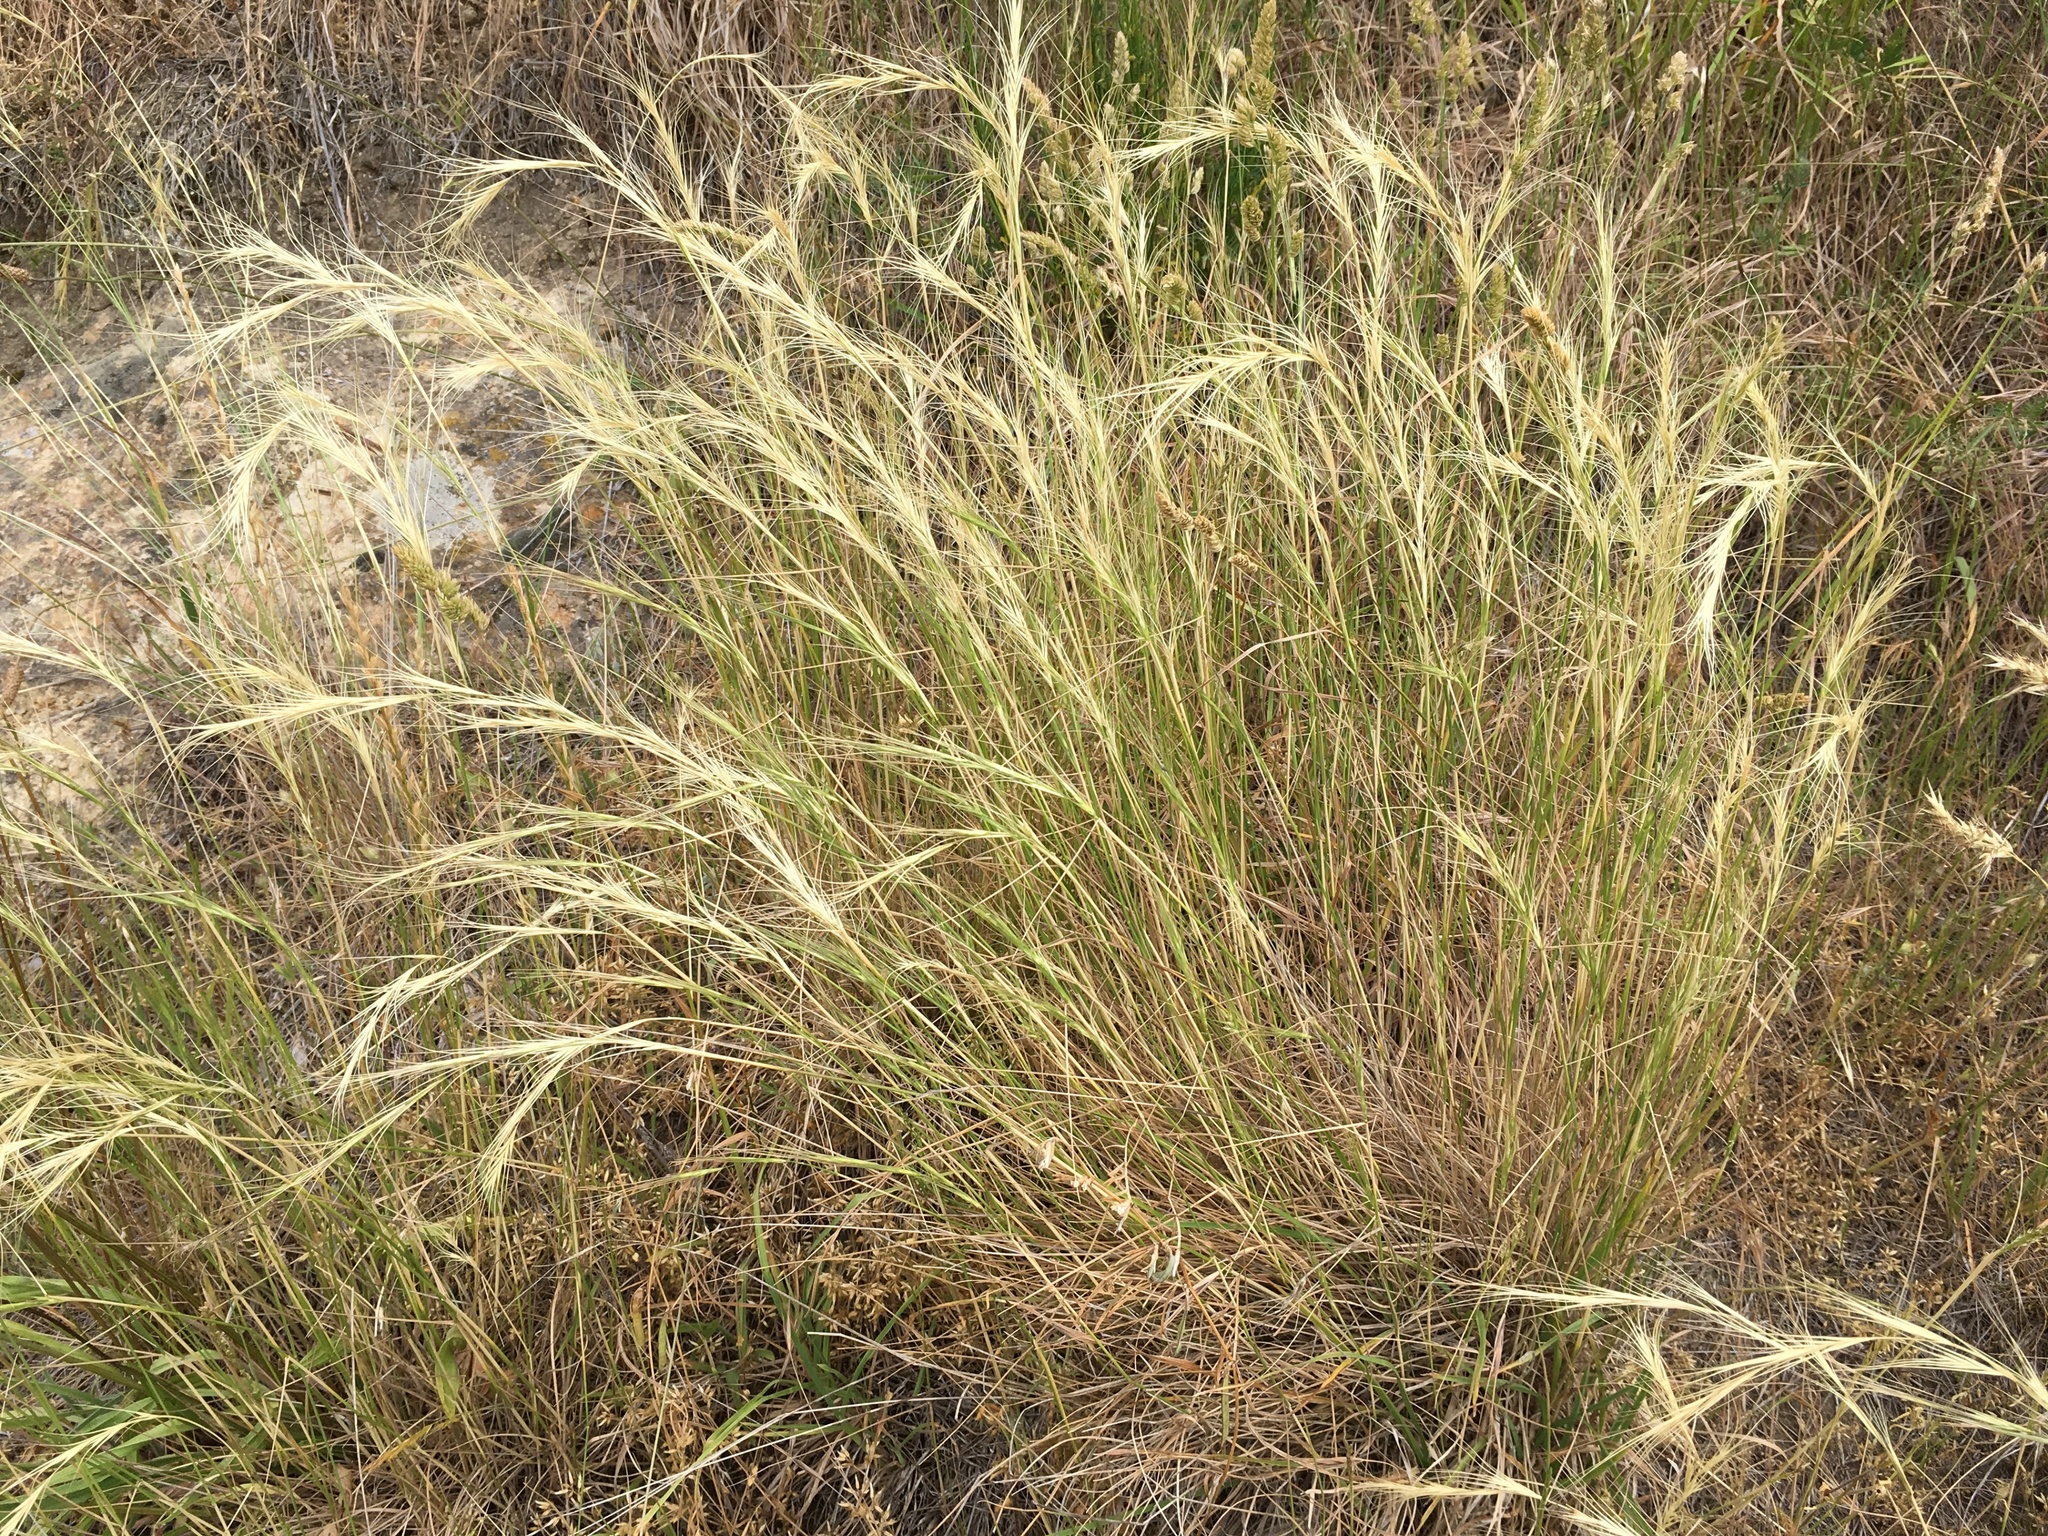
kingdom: Plantae
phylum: Tracheophyta
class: Liliopsida
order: Poales
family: Poaceae
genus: Anthosachne
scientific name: Anthosachne solandri
